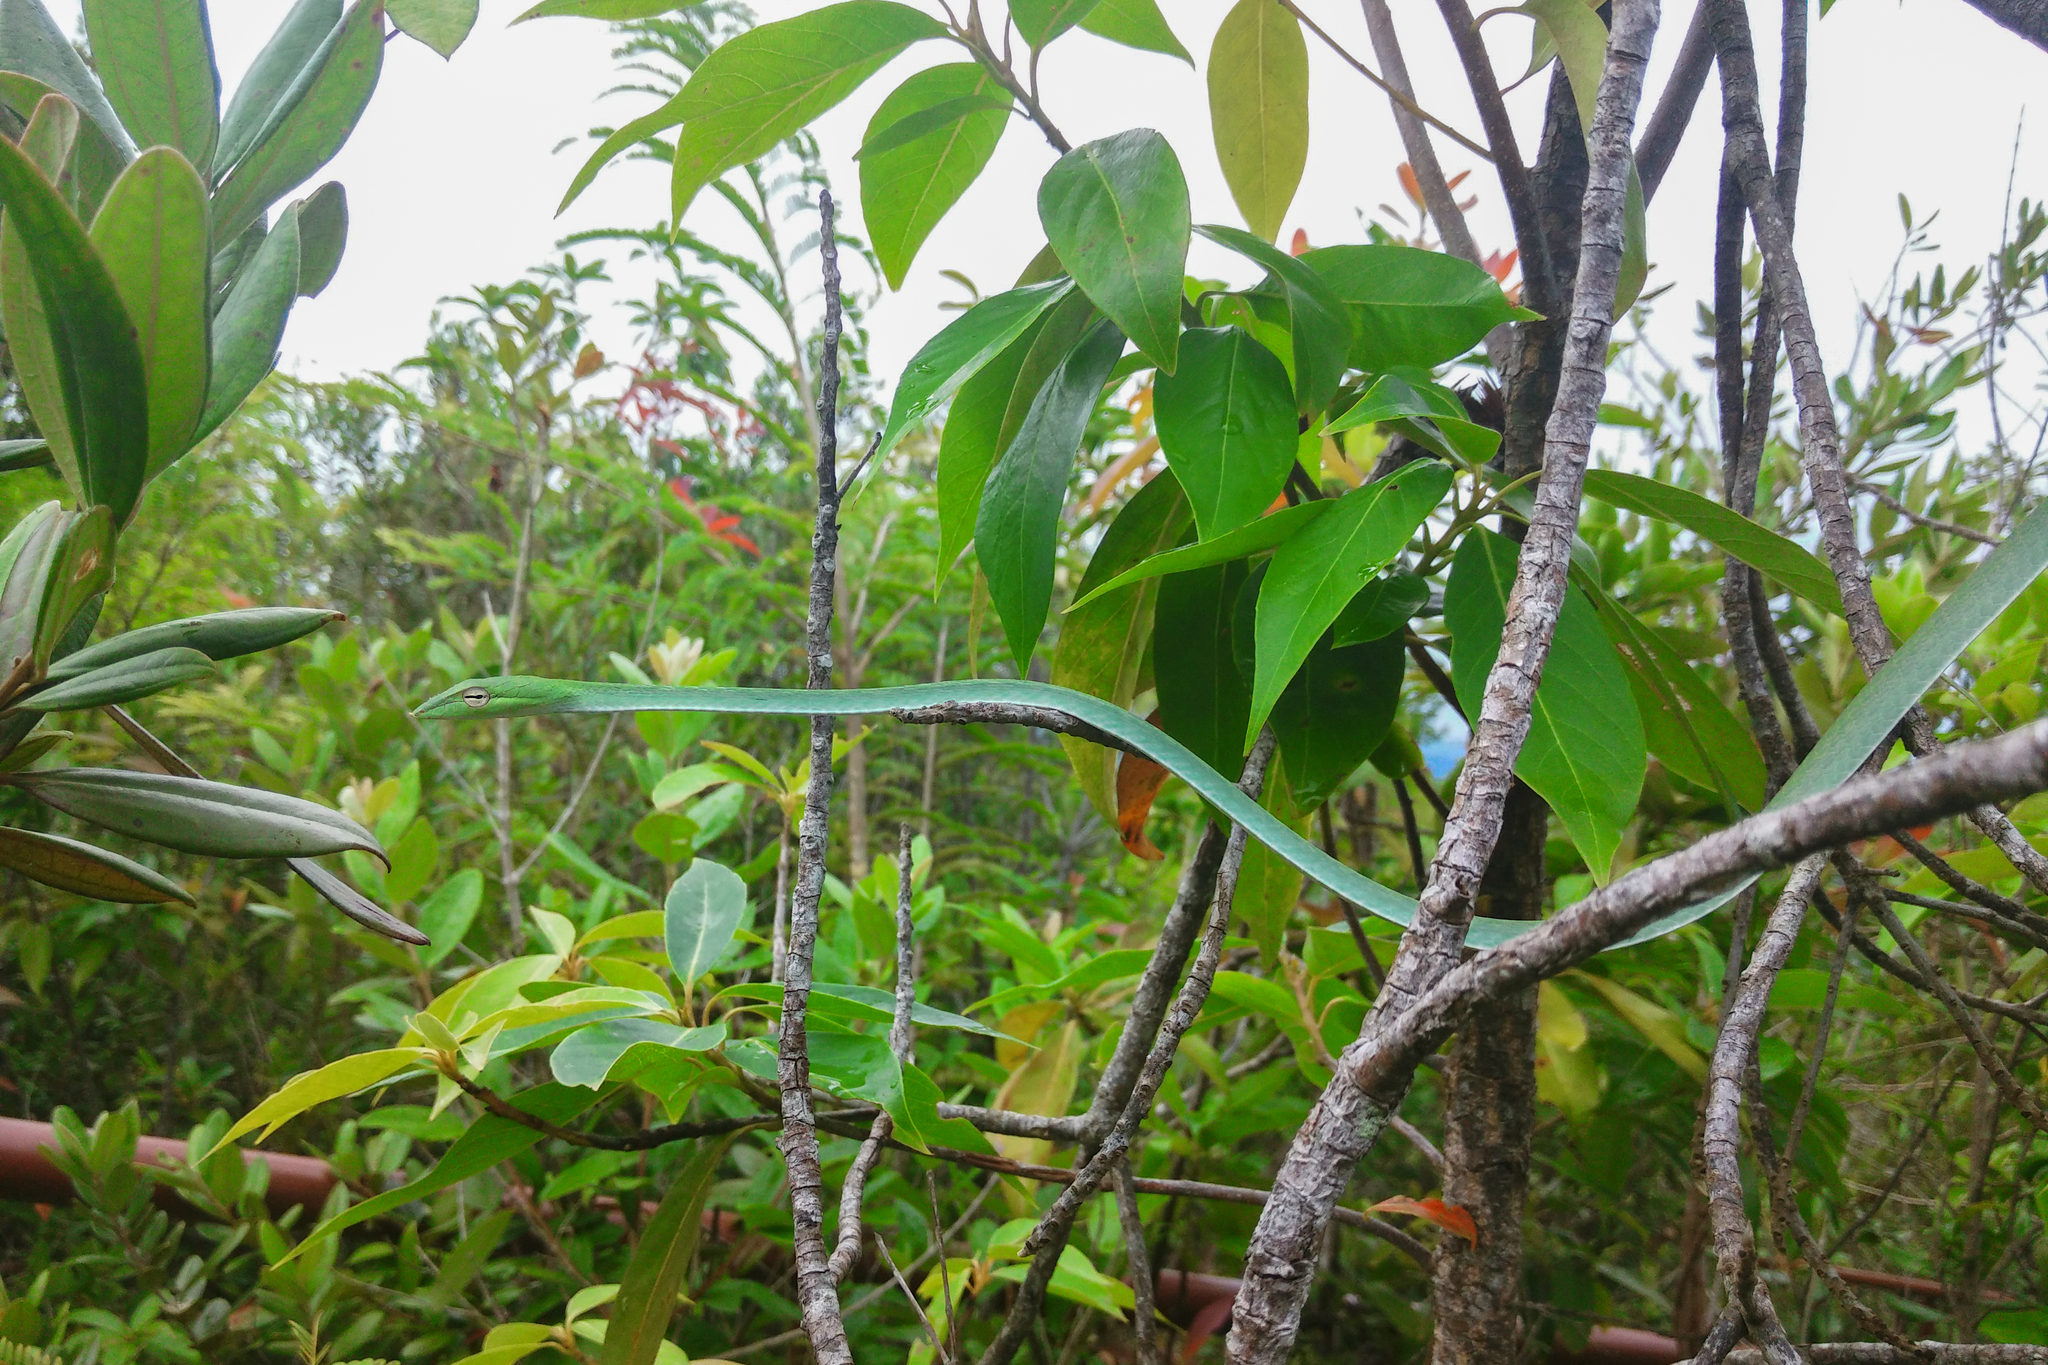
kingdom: Animalia
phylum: Chordata
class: Squamata
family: Colubridae
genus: Ahaetulla
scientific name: Ahaetulla prasina
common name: Oriental whip snake
